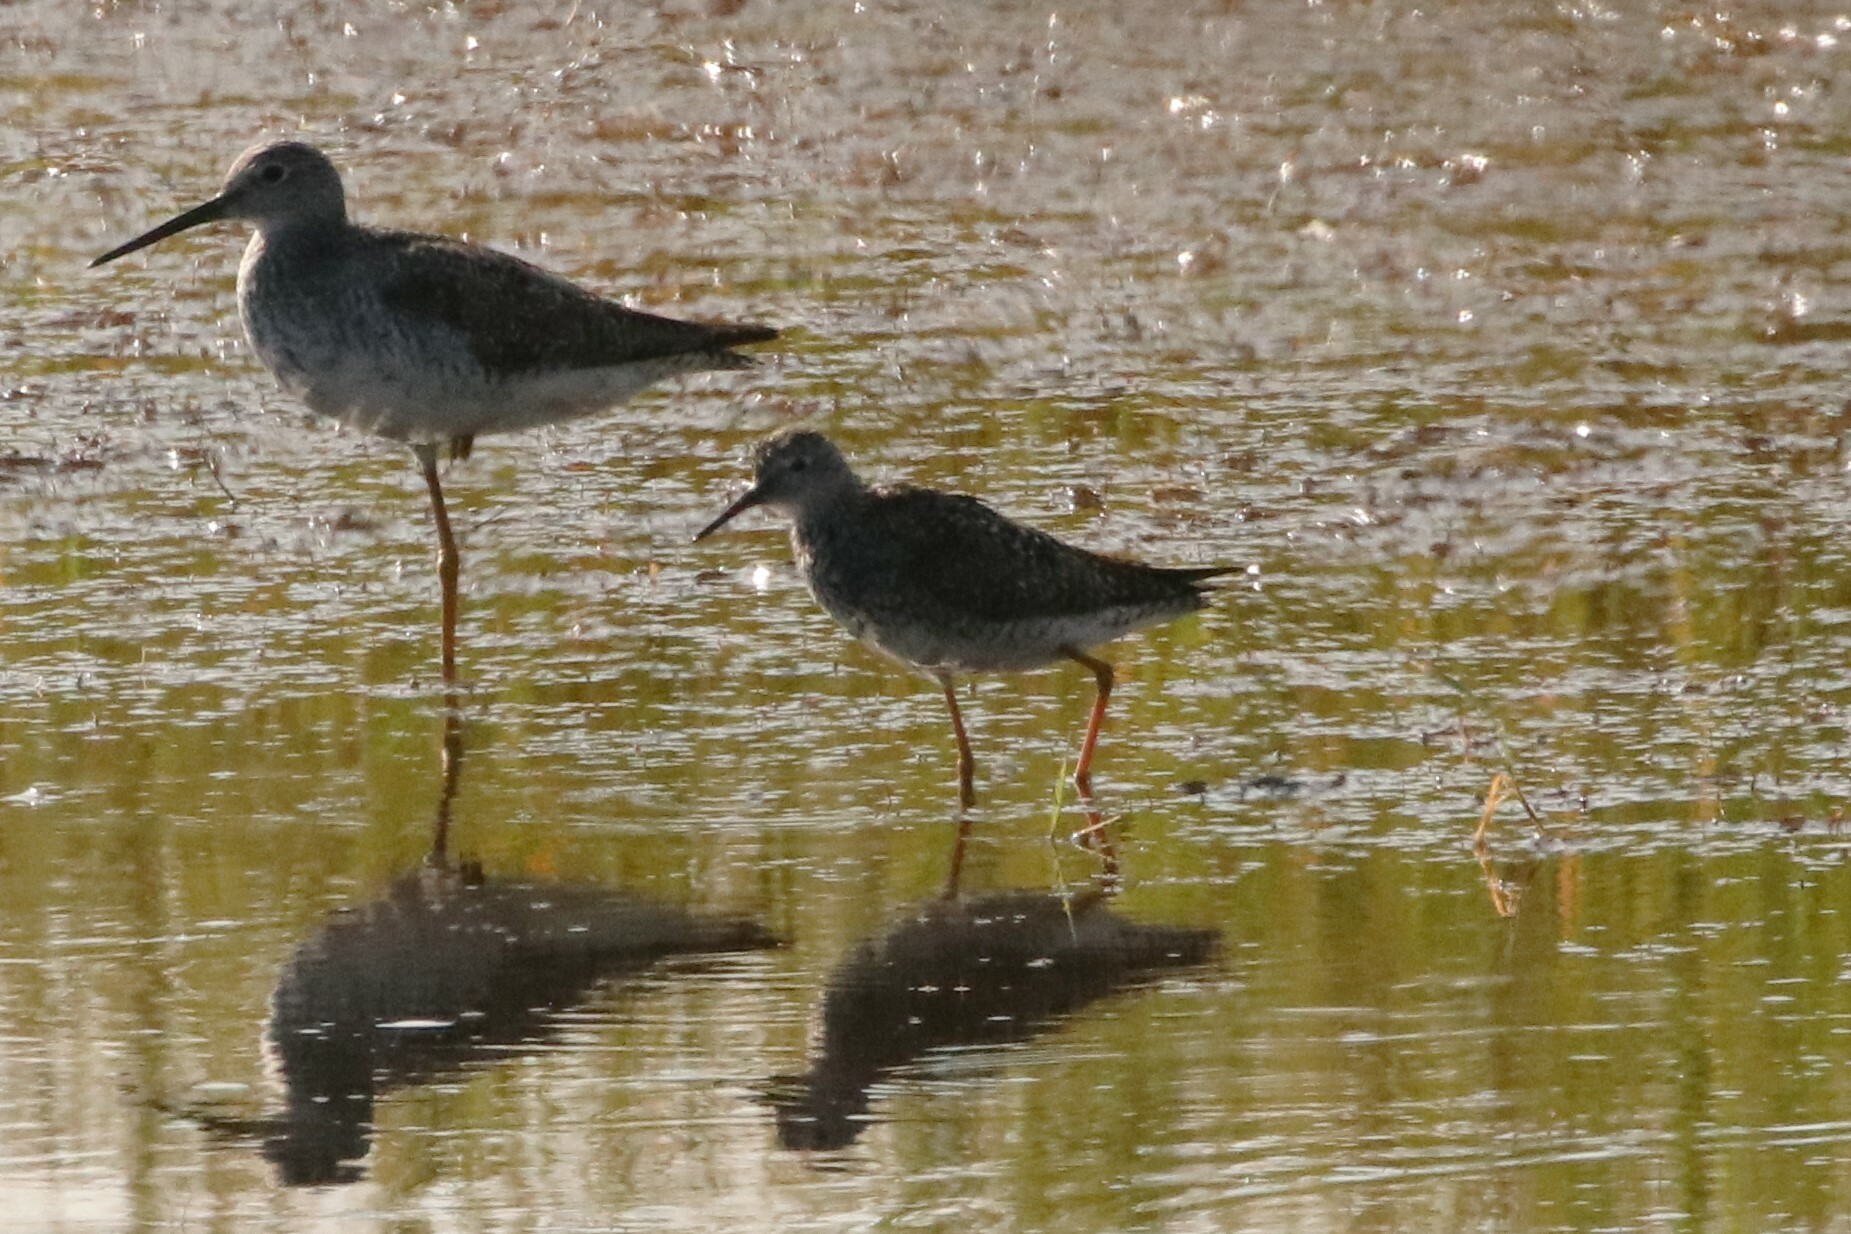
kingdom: Animalia
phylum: Chordata
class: Aves
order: Charadriiformes
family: Scolopacidae
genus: Tringa
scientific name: Tringa flavipes
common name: Lesser yellowlegs
